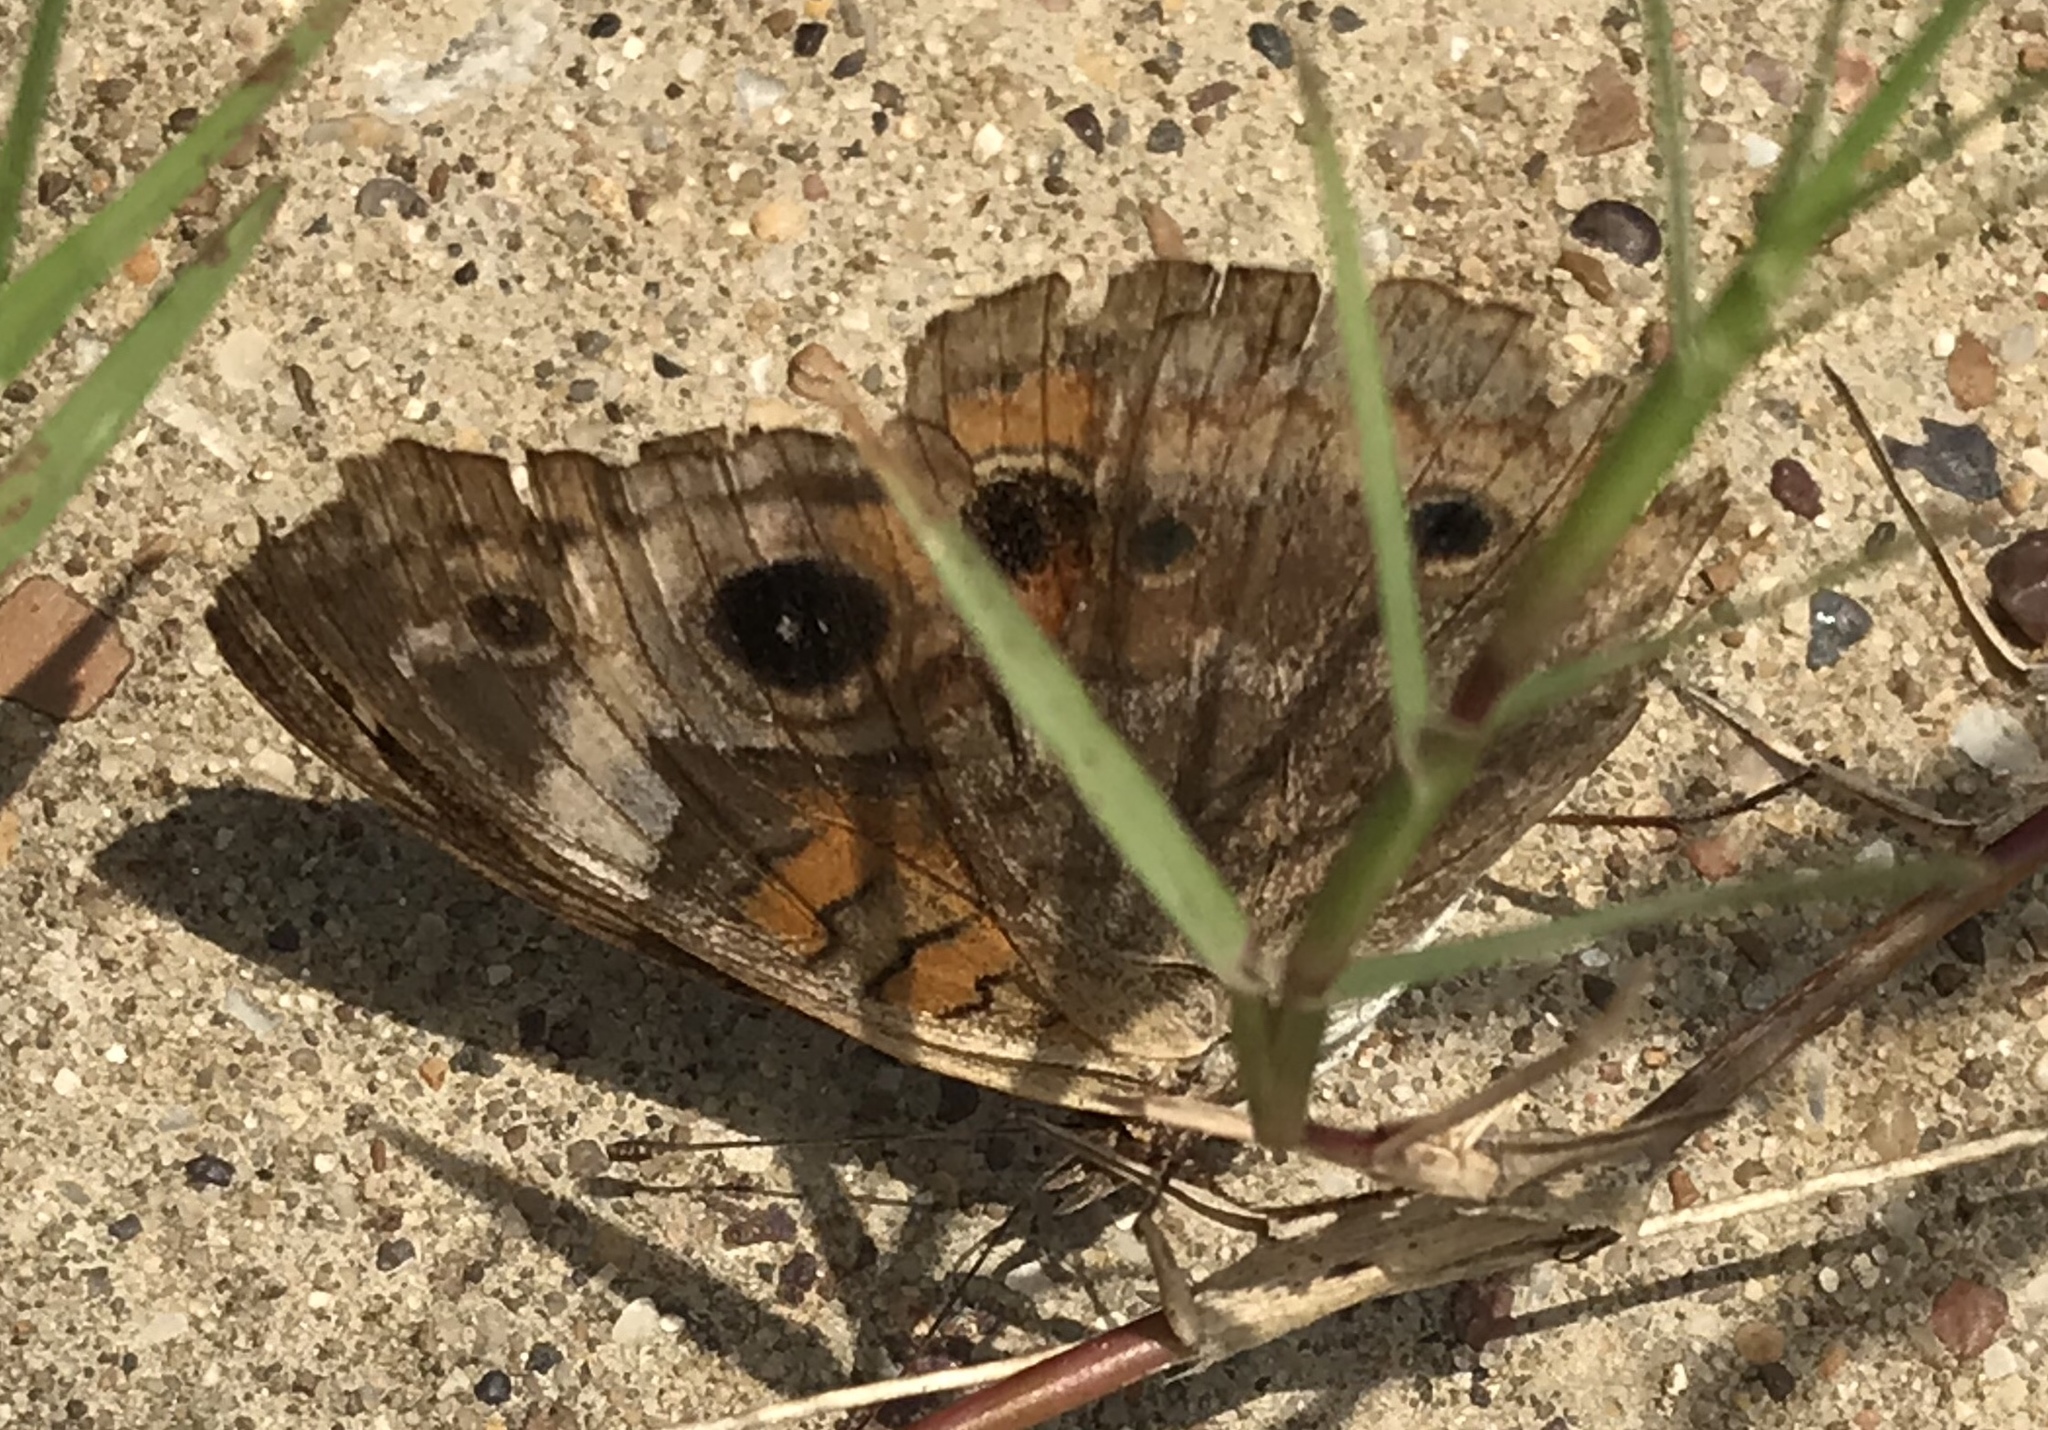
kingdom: Animalia
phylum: Arthropoda
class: Insecta
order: Lepidoptera
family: Nymphalidae
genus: Junonia
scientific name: Junonia coenia
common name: Common buckeye
